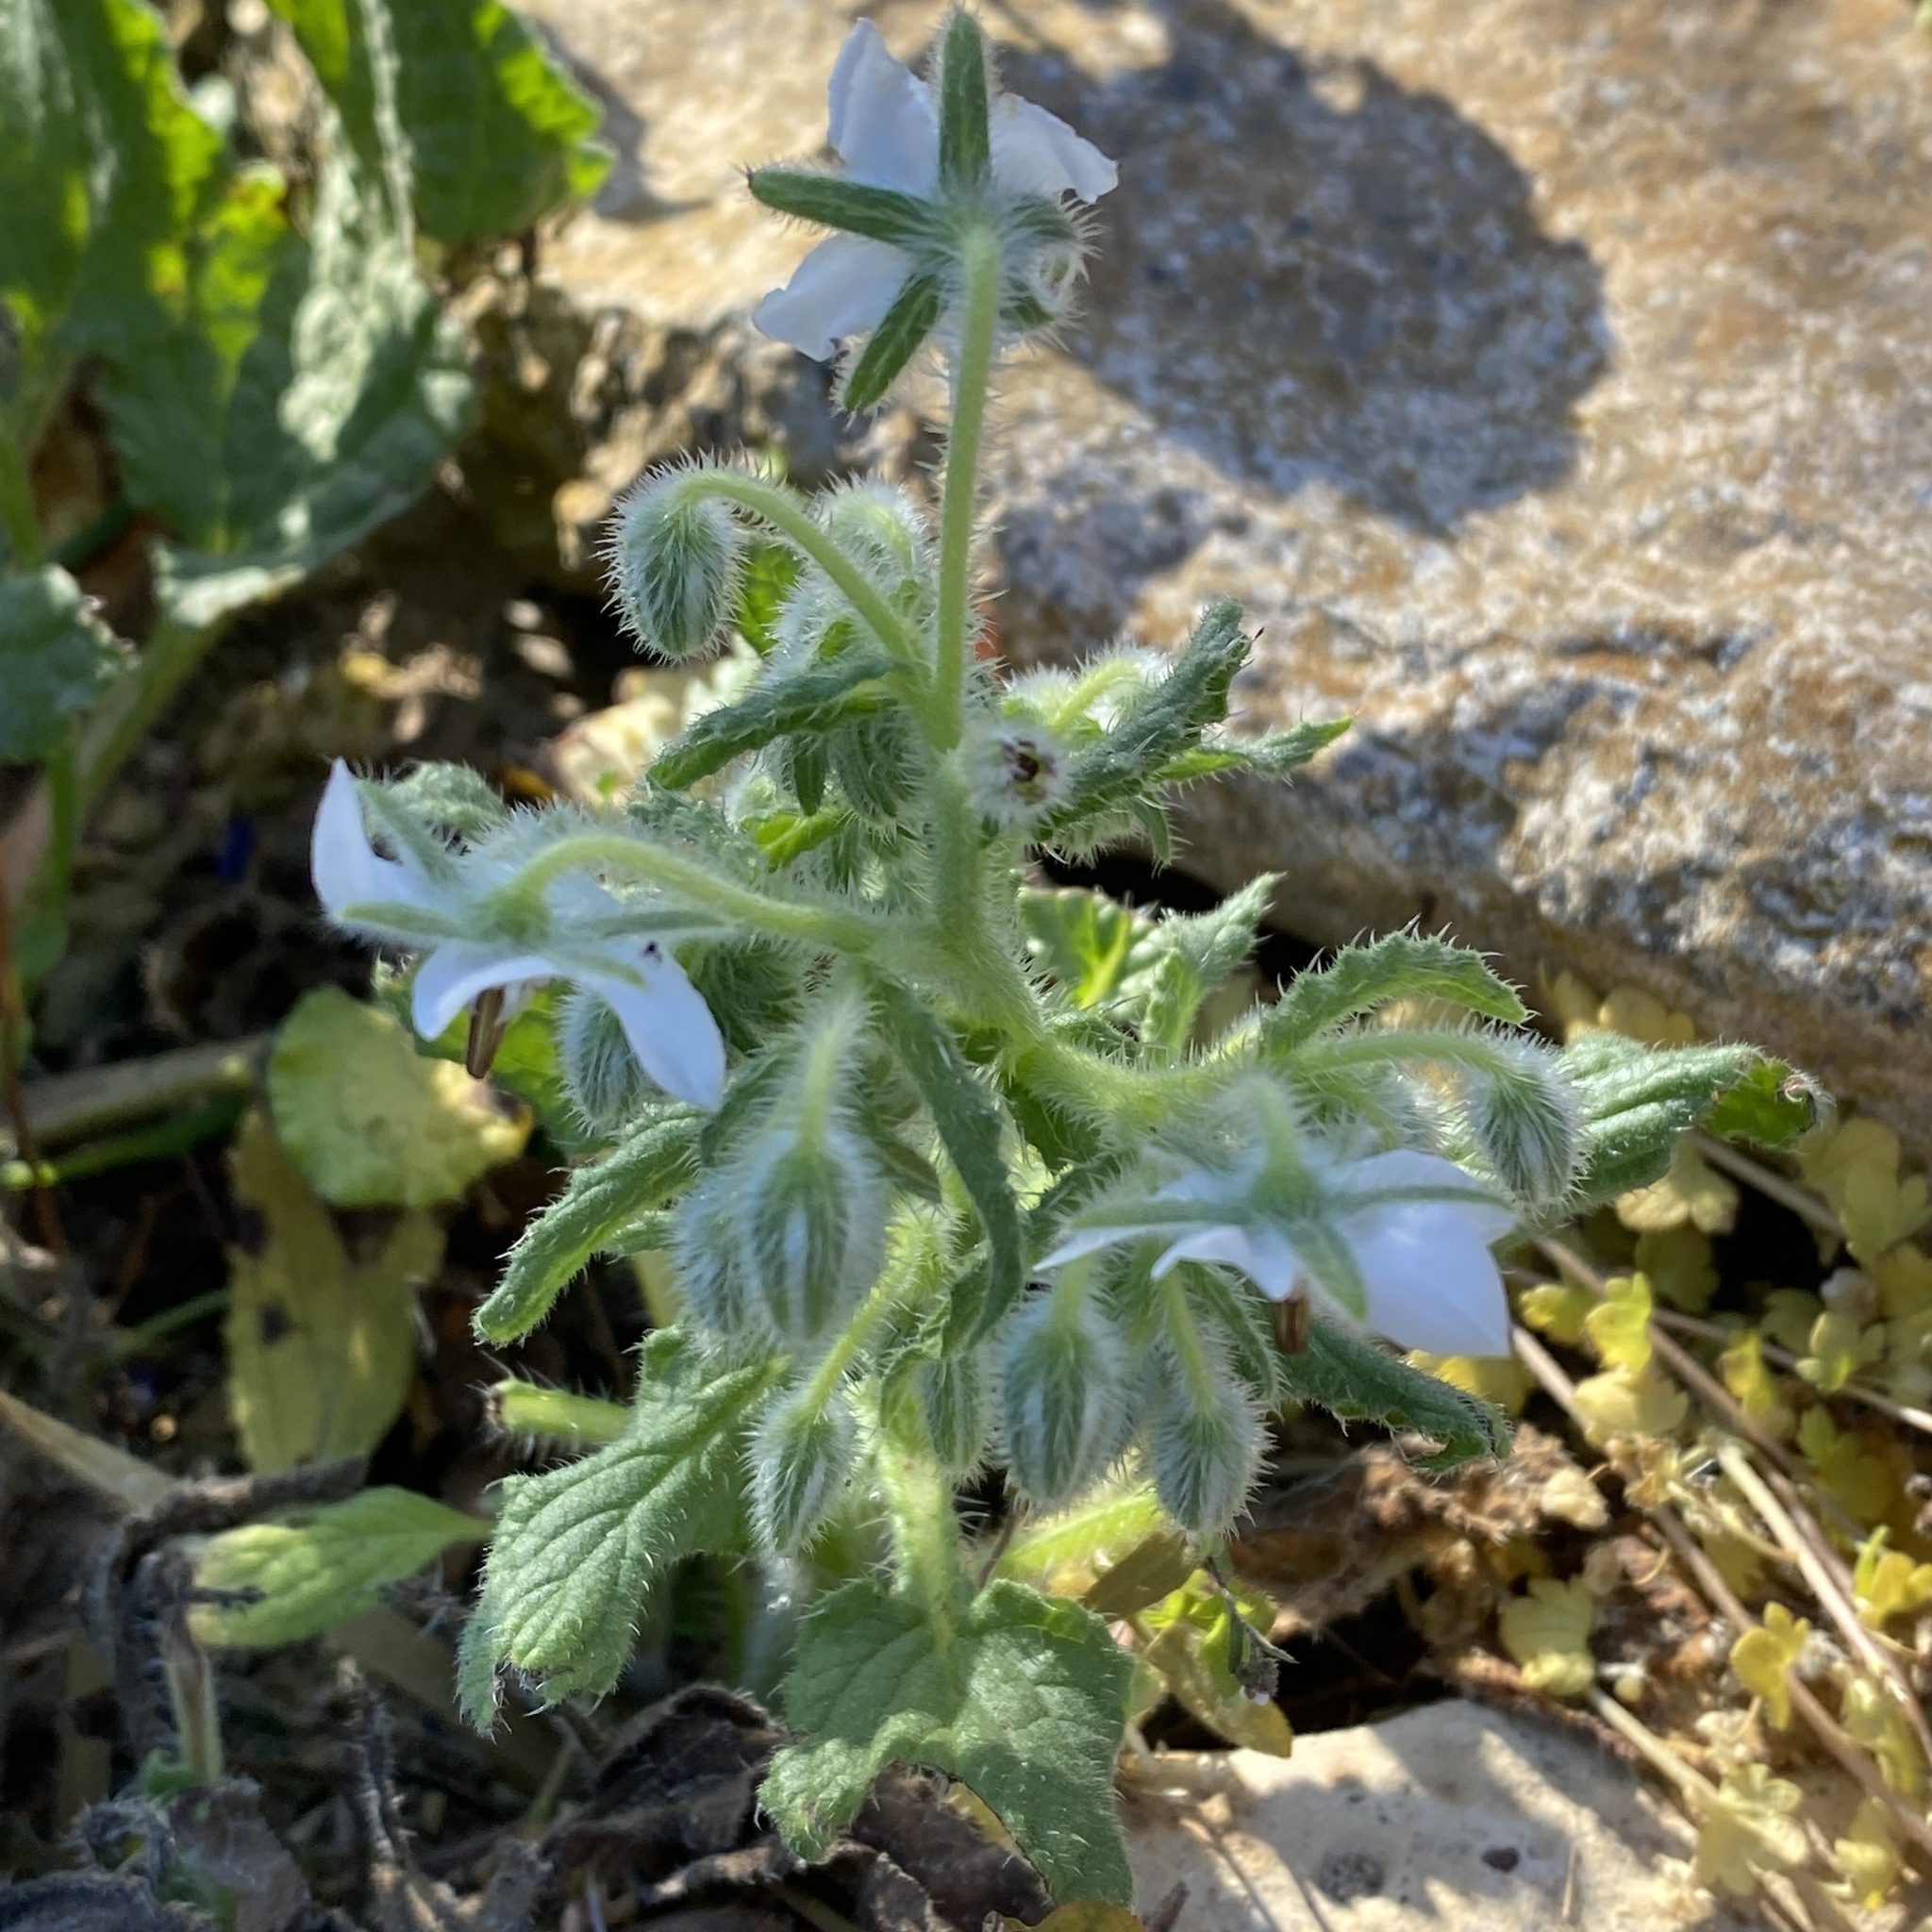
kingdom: Plantae
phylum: Tracheophyta
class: Magnoliopsida
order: Boraginales
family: Boraginaceae
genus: Borago
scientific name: Borago officinalis
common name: Borage
